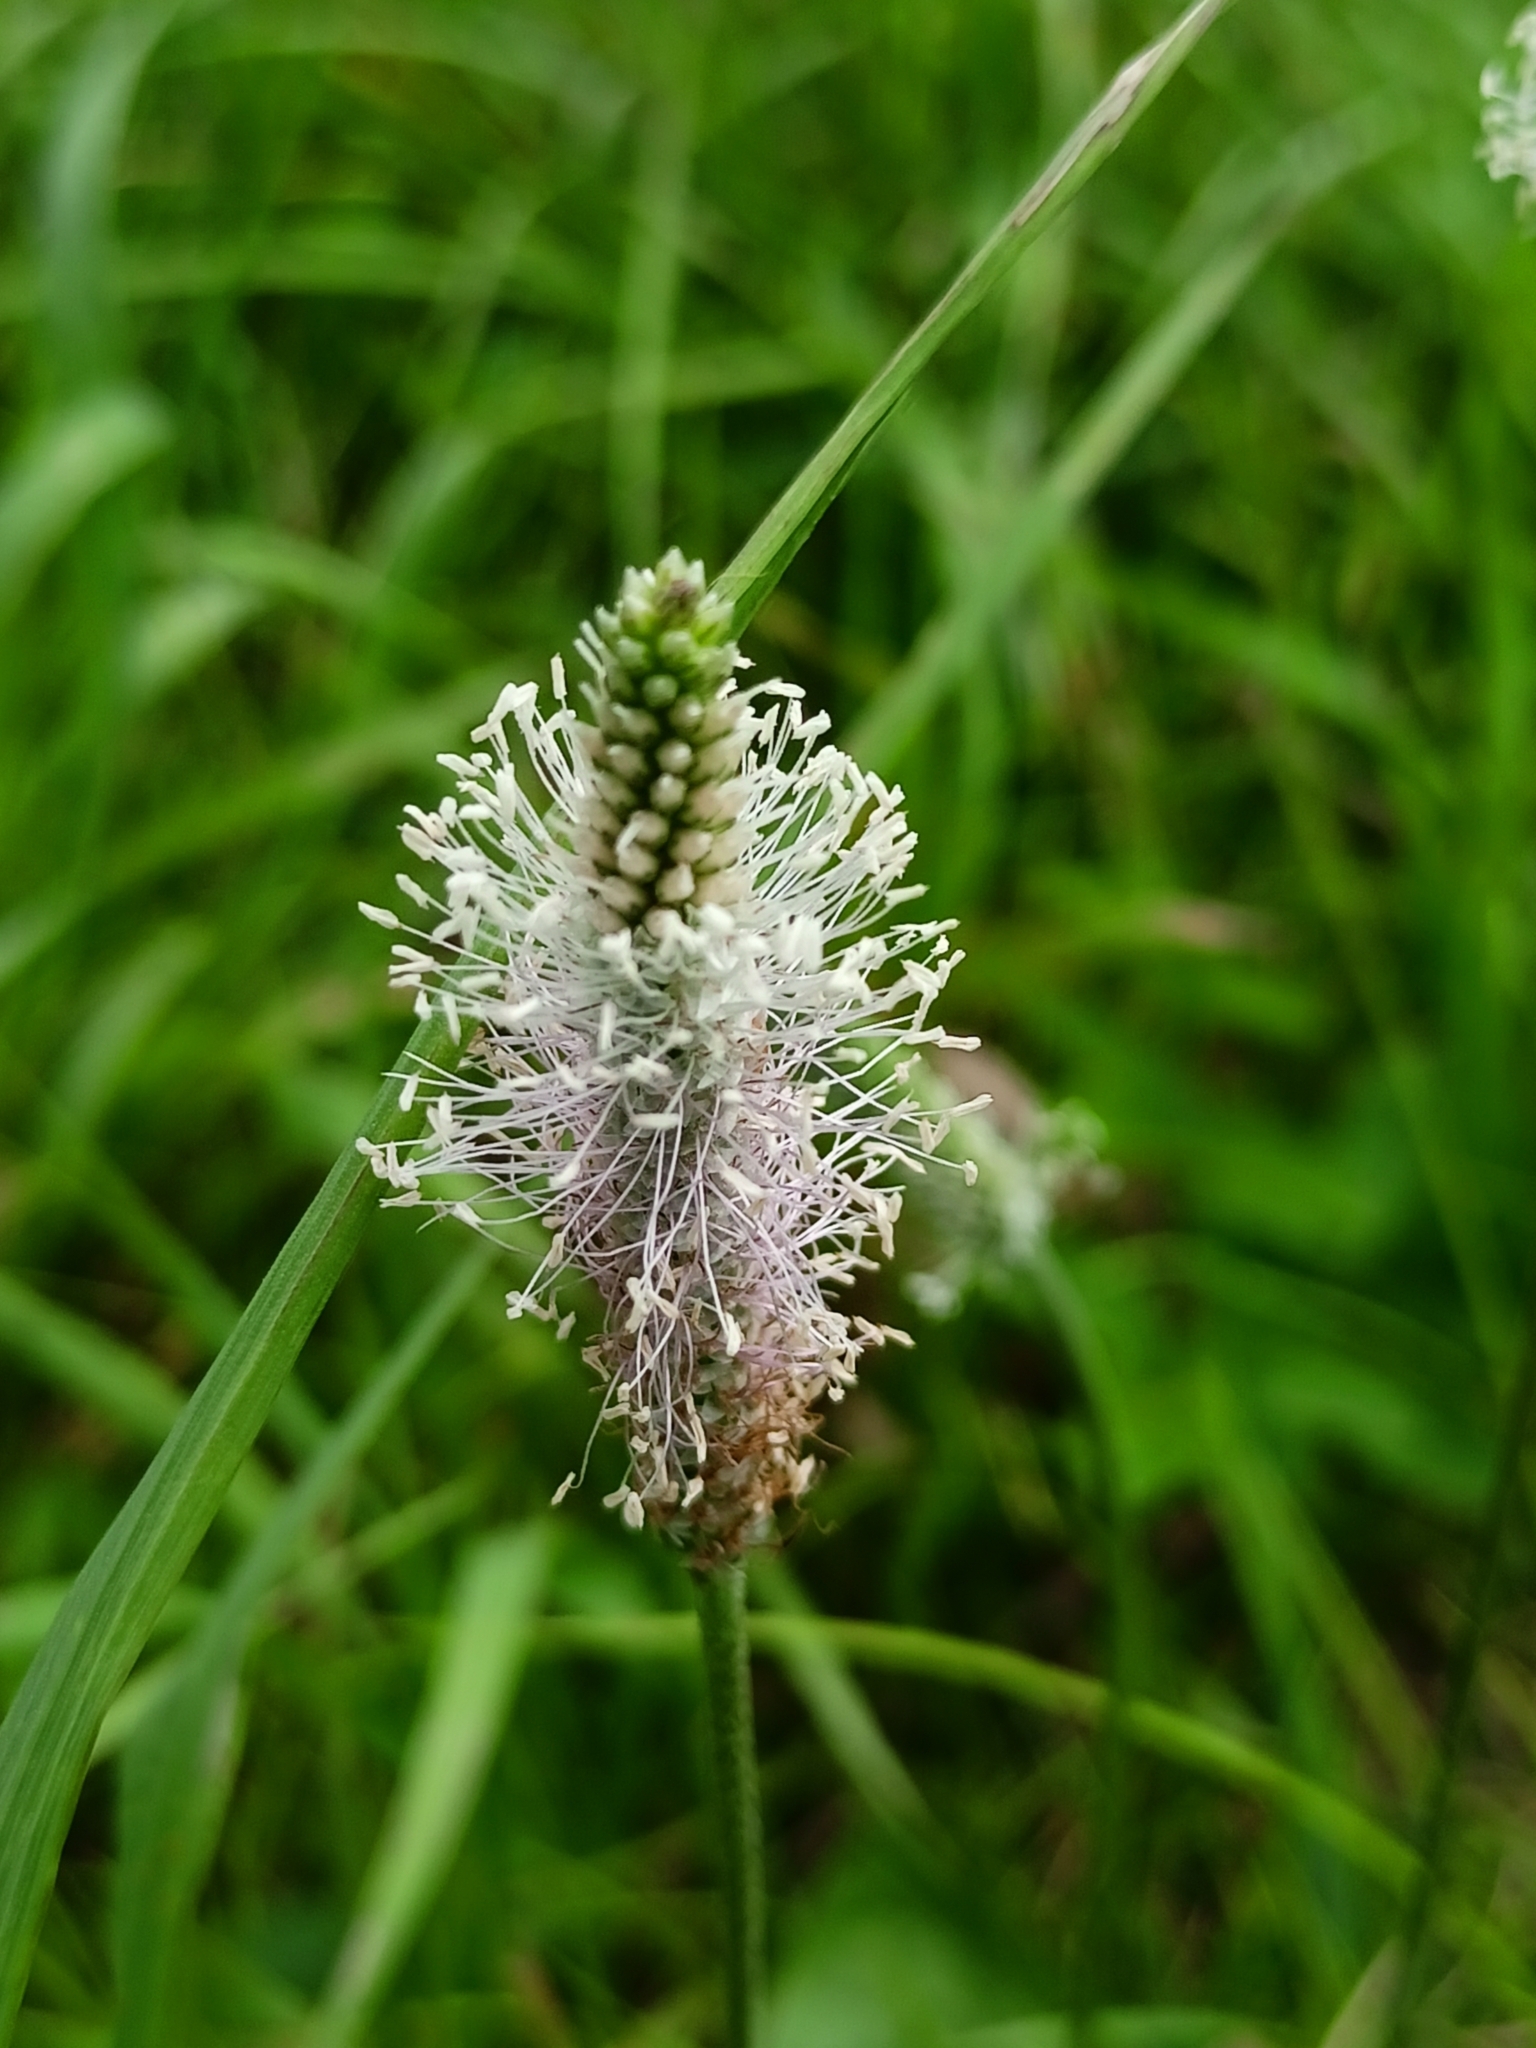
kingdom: Plantae
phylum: Tracheophyta
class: Magnoliopsida
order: Lamiales
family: Plantaginaceae
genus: Plantago
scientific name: Plantago media
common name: Hoary plantain
